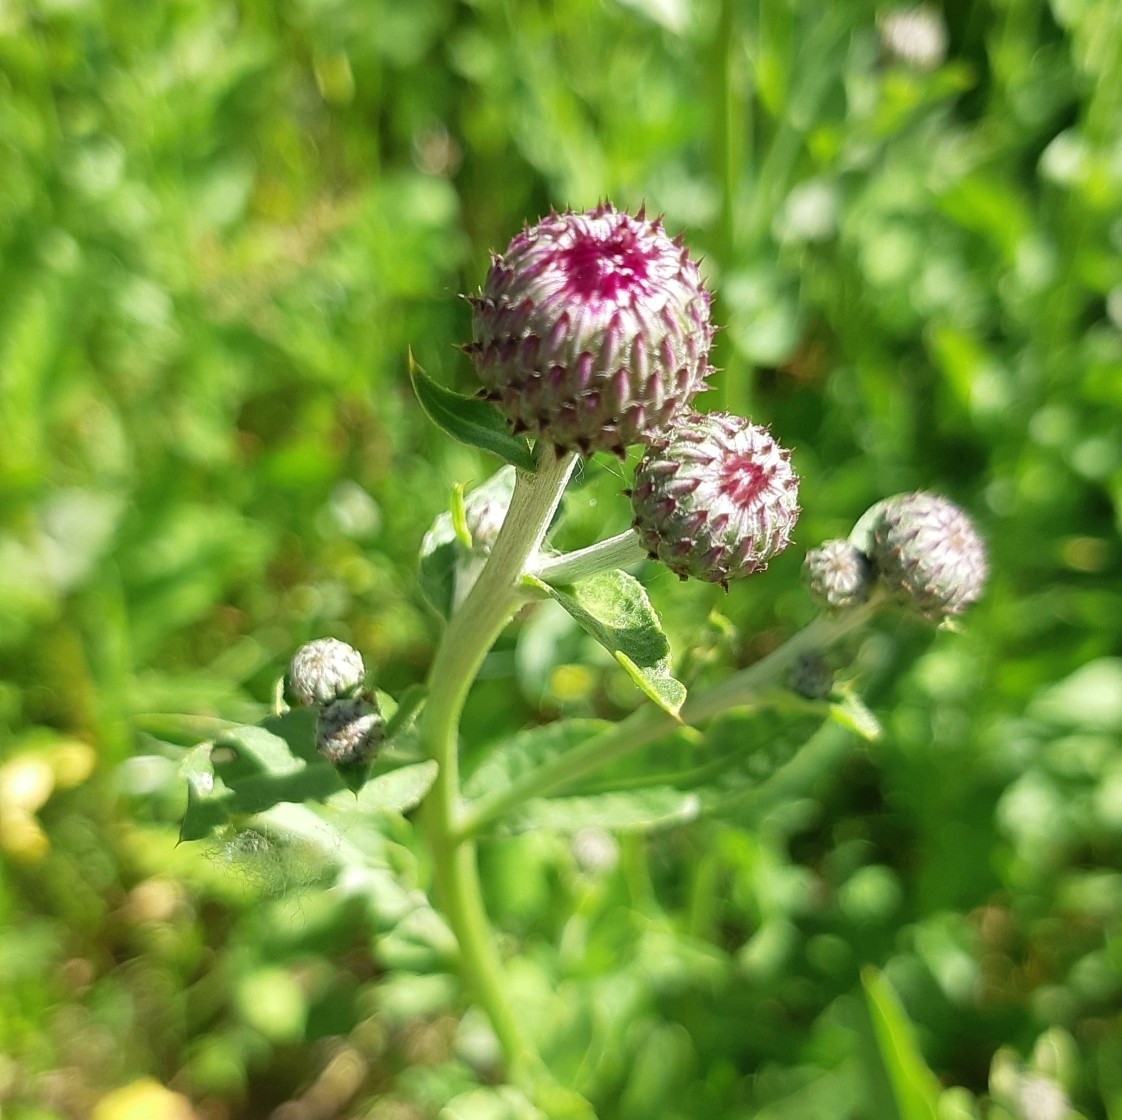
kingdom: Plantae
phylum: Tracheophyta
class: Magnoliopsida
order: Asterales
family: Asteraceae
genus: Cirsium
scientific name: Cirsium arvense
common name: Creeping thistle
